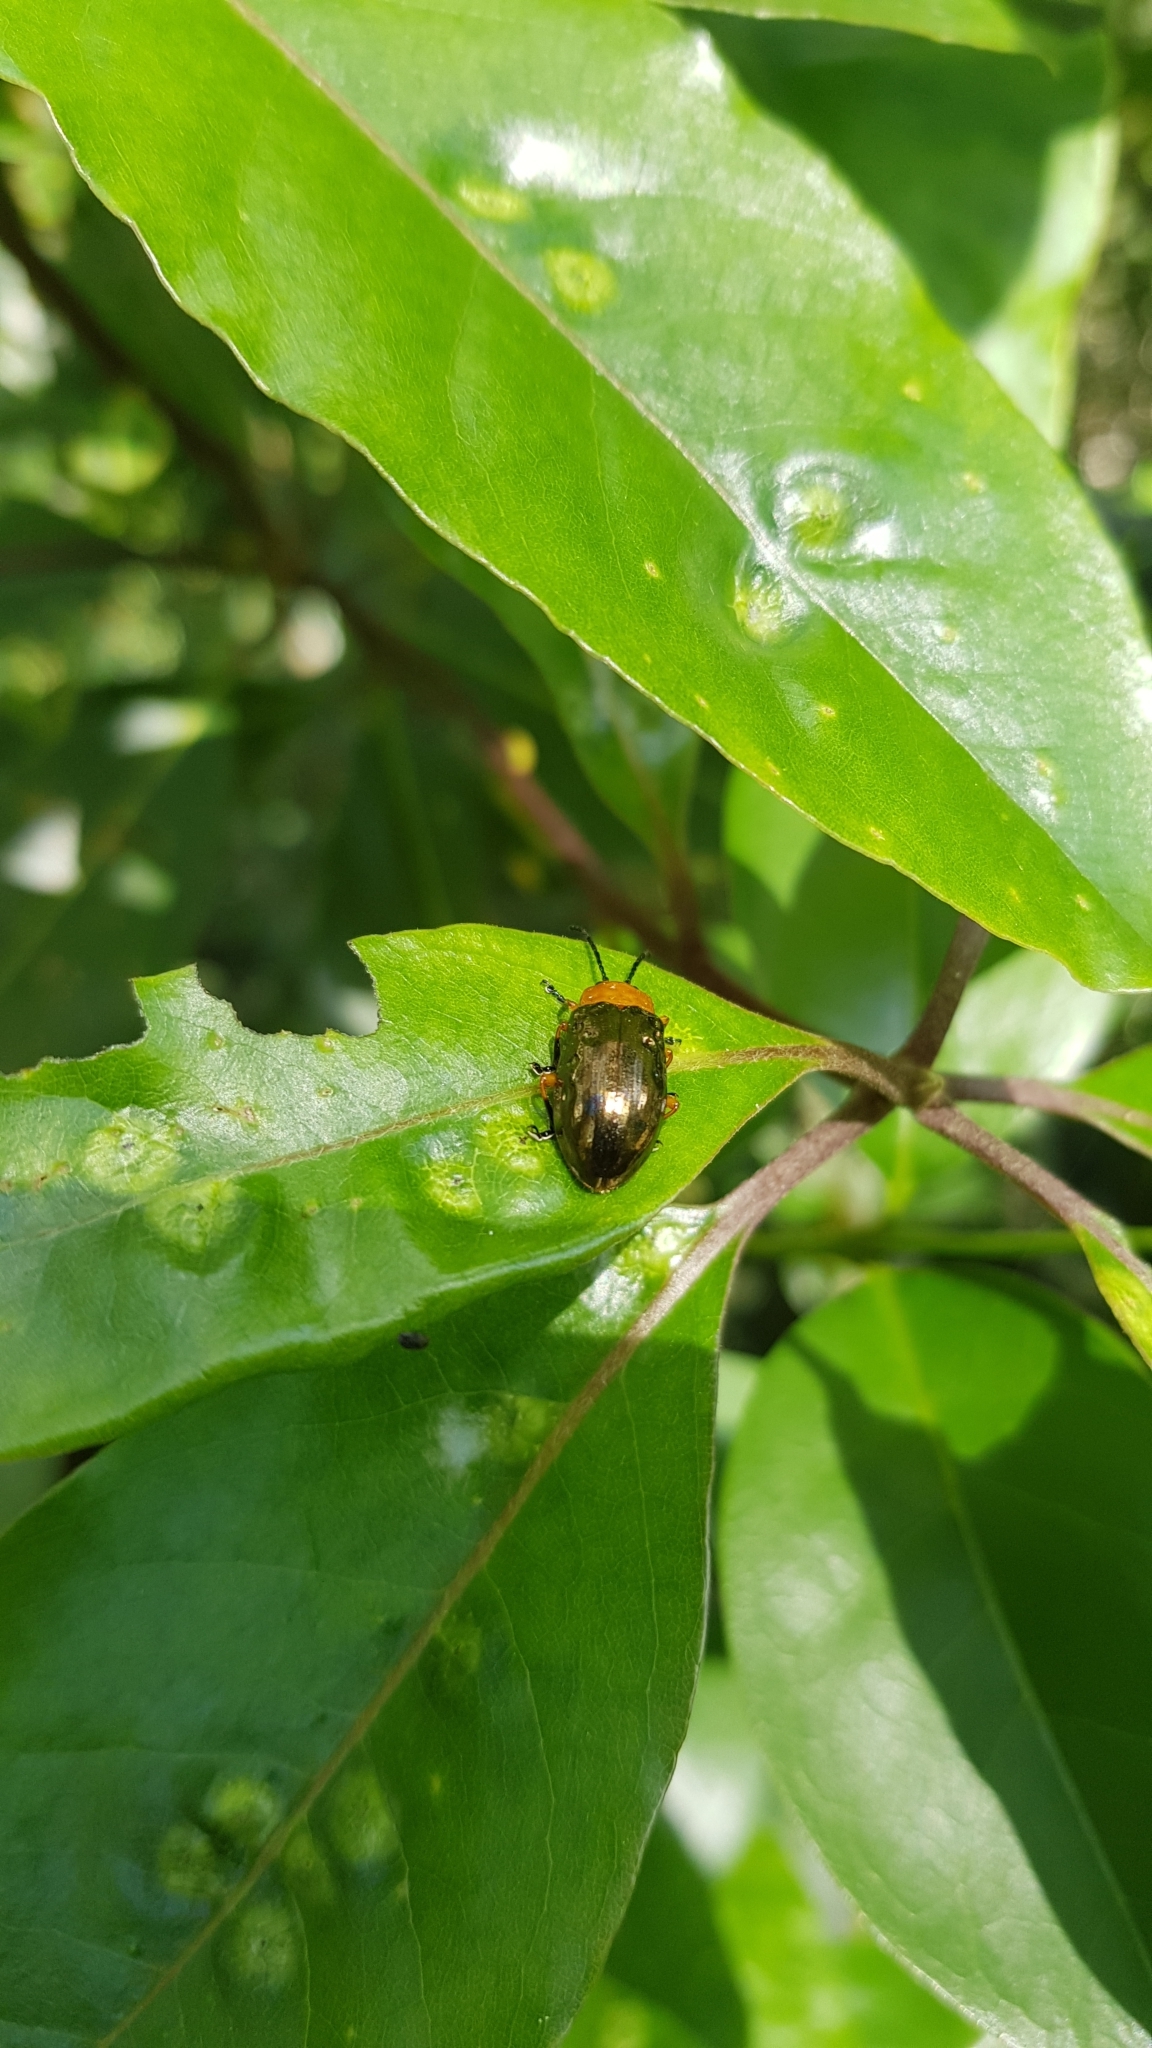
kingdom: Animalia
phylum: Arthropoda
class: Insecta
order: Coleoptera
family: Chrysomelidae
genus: Lamprolina
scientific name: Lamprolina
